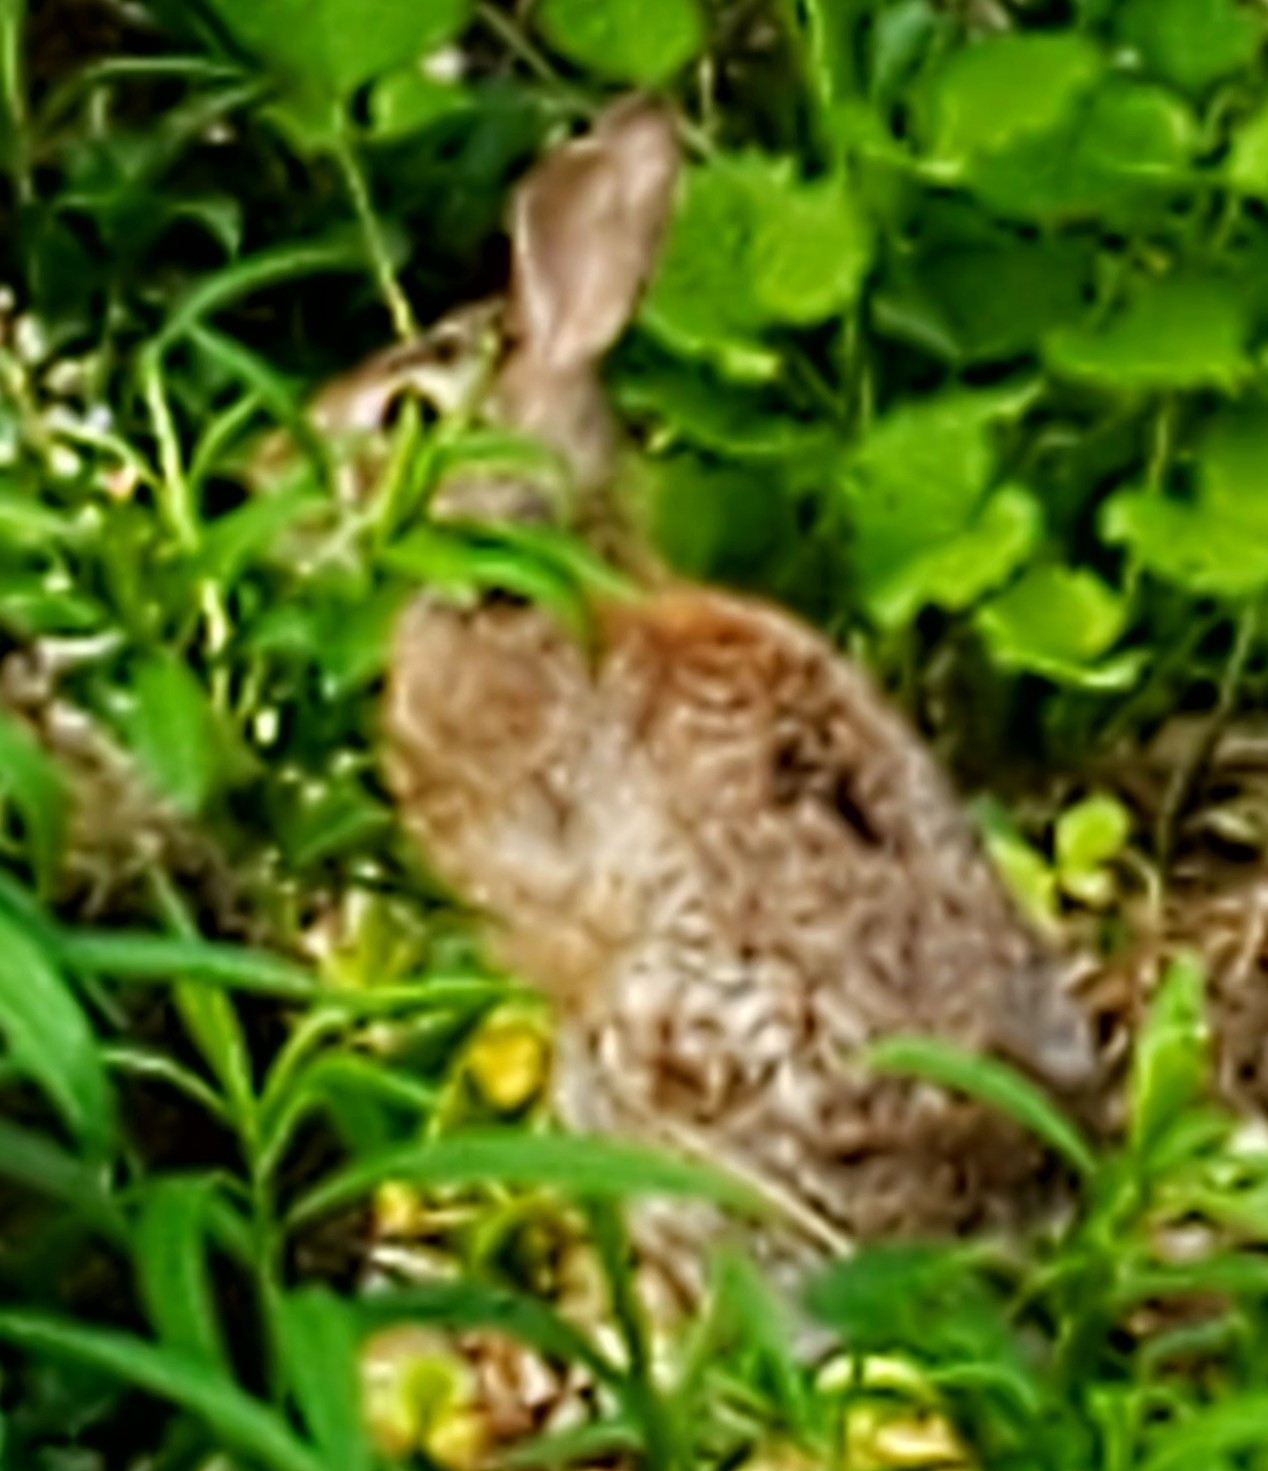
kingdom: Animalia
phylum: Chordata
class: Mammalia
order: Lagomorpha
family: Leporidae
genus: Sylvilagus
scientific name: Sylvilagus floridanus
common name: Eastern cottontail
